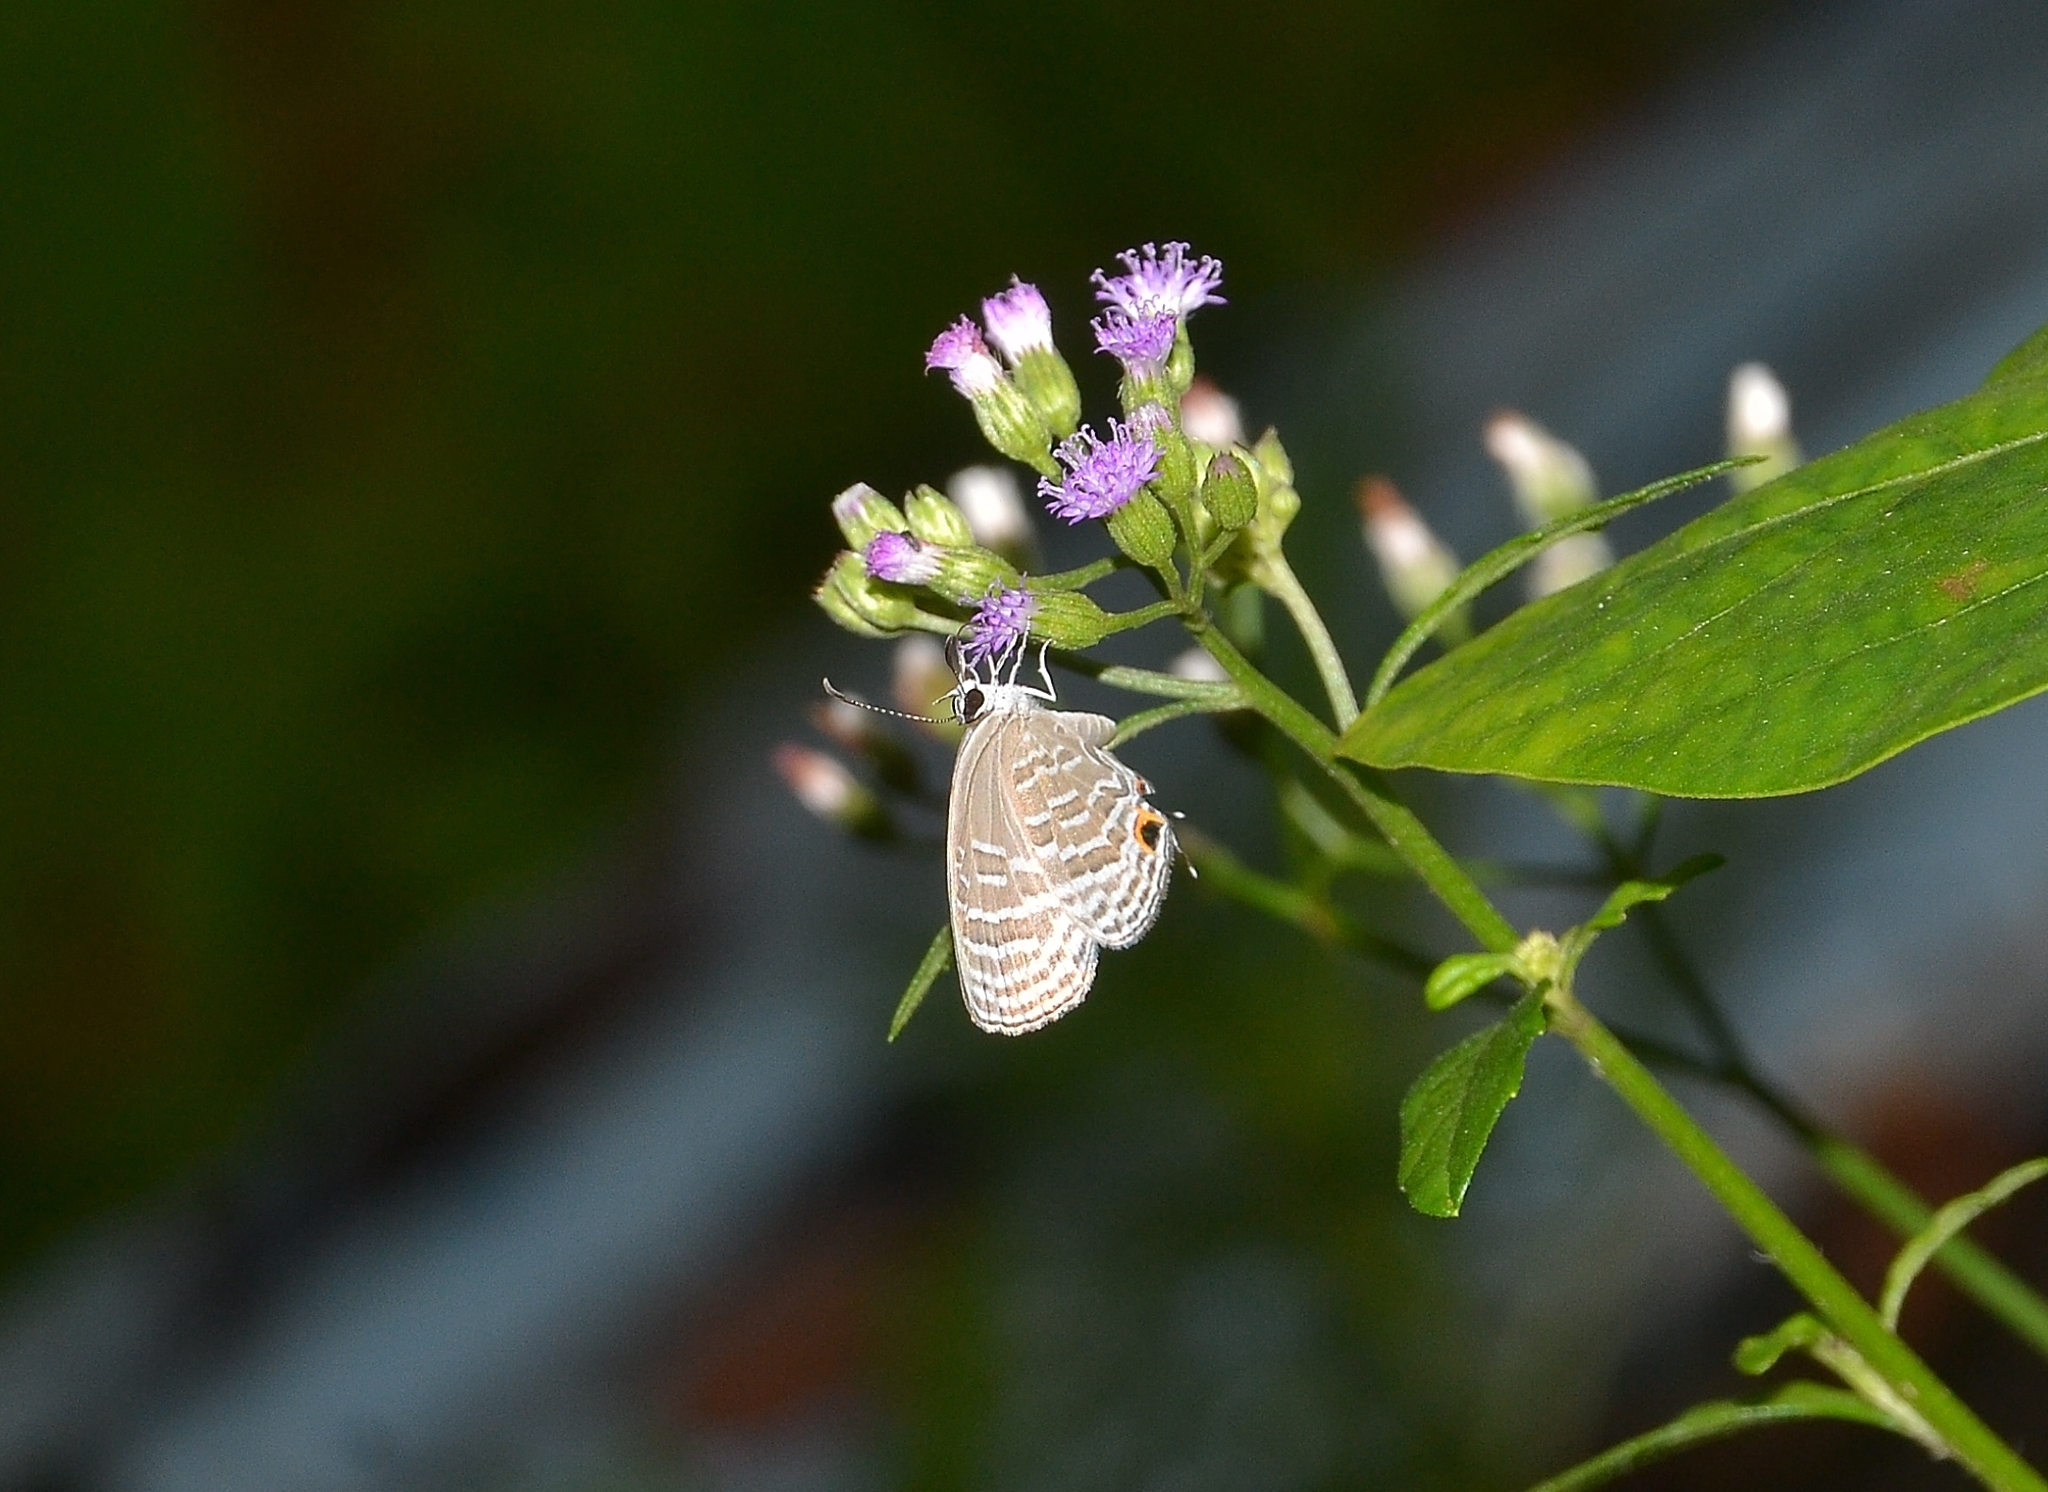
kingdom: Animalia
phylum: Arthropoda
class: Insecta
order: Lepidoptera
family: Lycaenidae
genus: Jamides
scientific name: Jamides celeno
